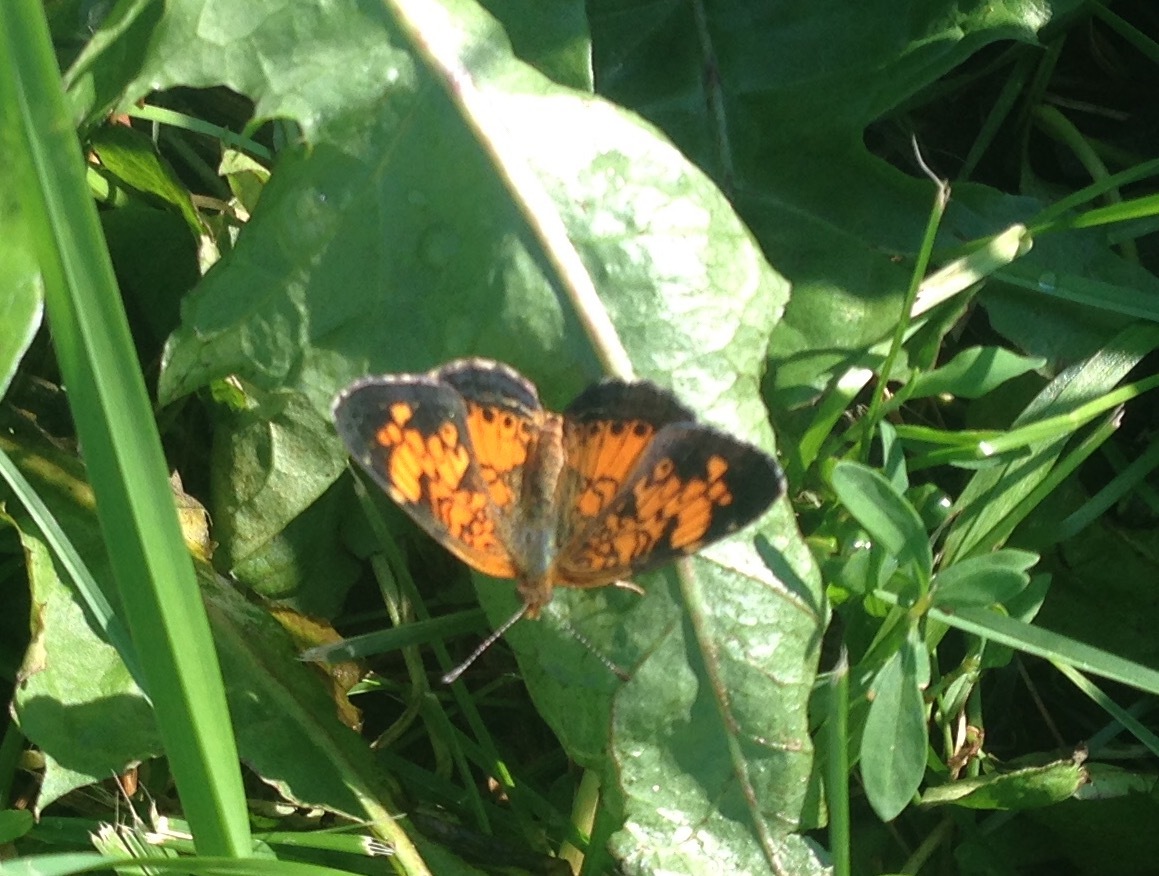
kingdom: Animalia
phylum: Arthropoda
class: Insecta
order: Lepidoptera
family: Nymphalidae
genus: Phyciodes
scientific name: Phyciodes tharos
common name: Pearl crescent
